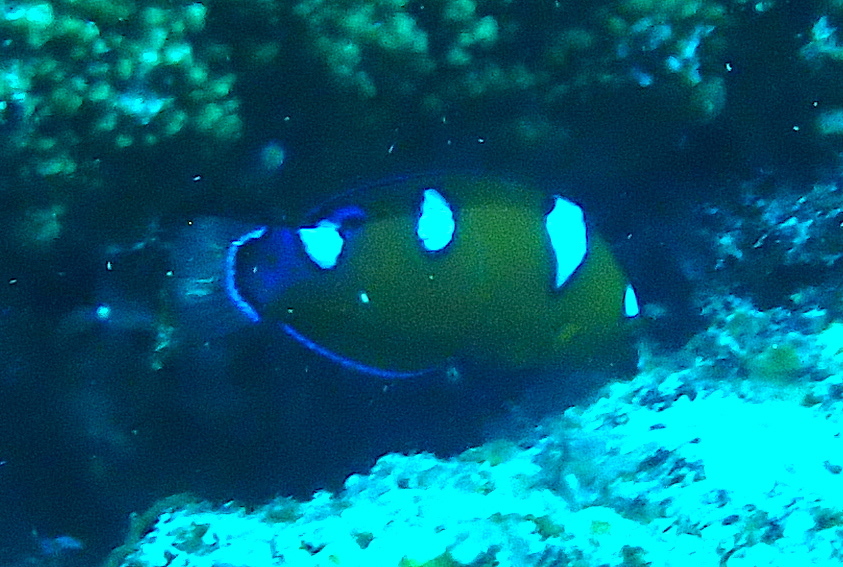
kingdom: Animalia
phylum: Chordata
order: Perciformes
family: Labridae
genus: Coris
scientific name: Coris gaimard
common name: Yellowtail coris
